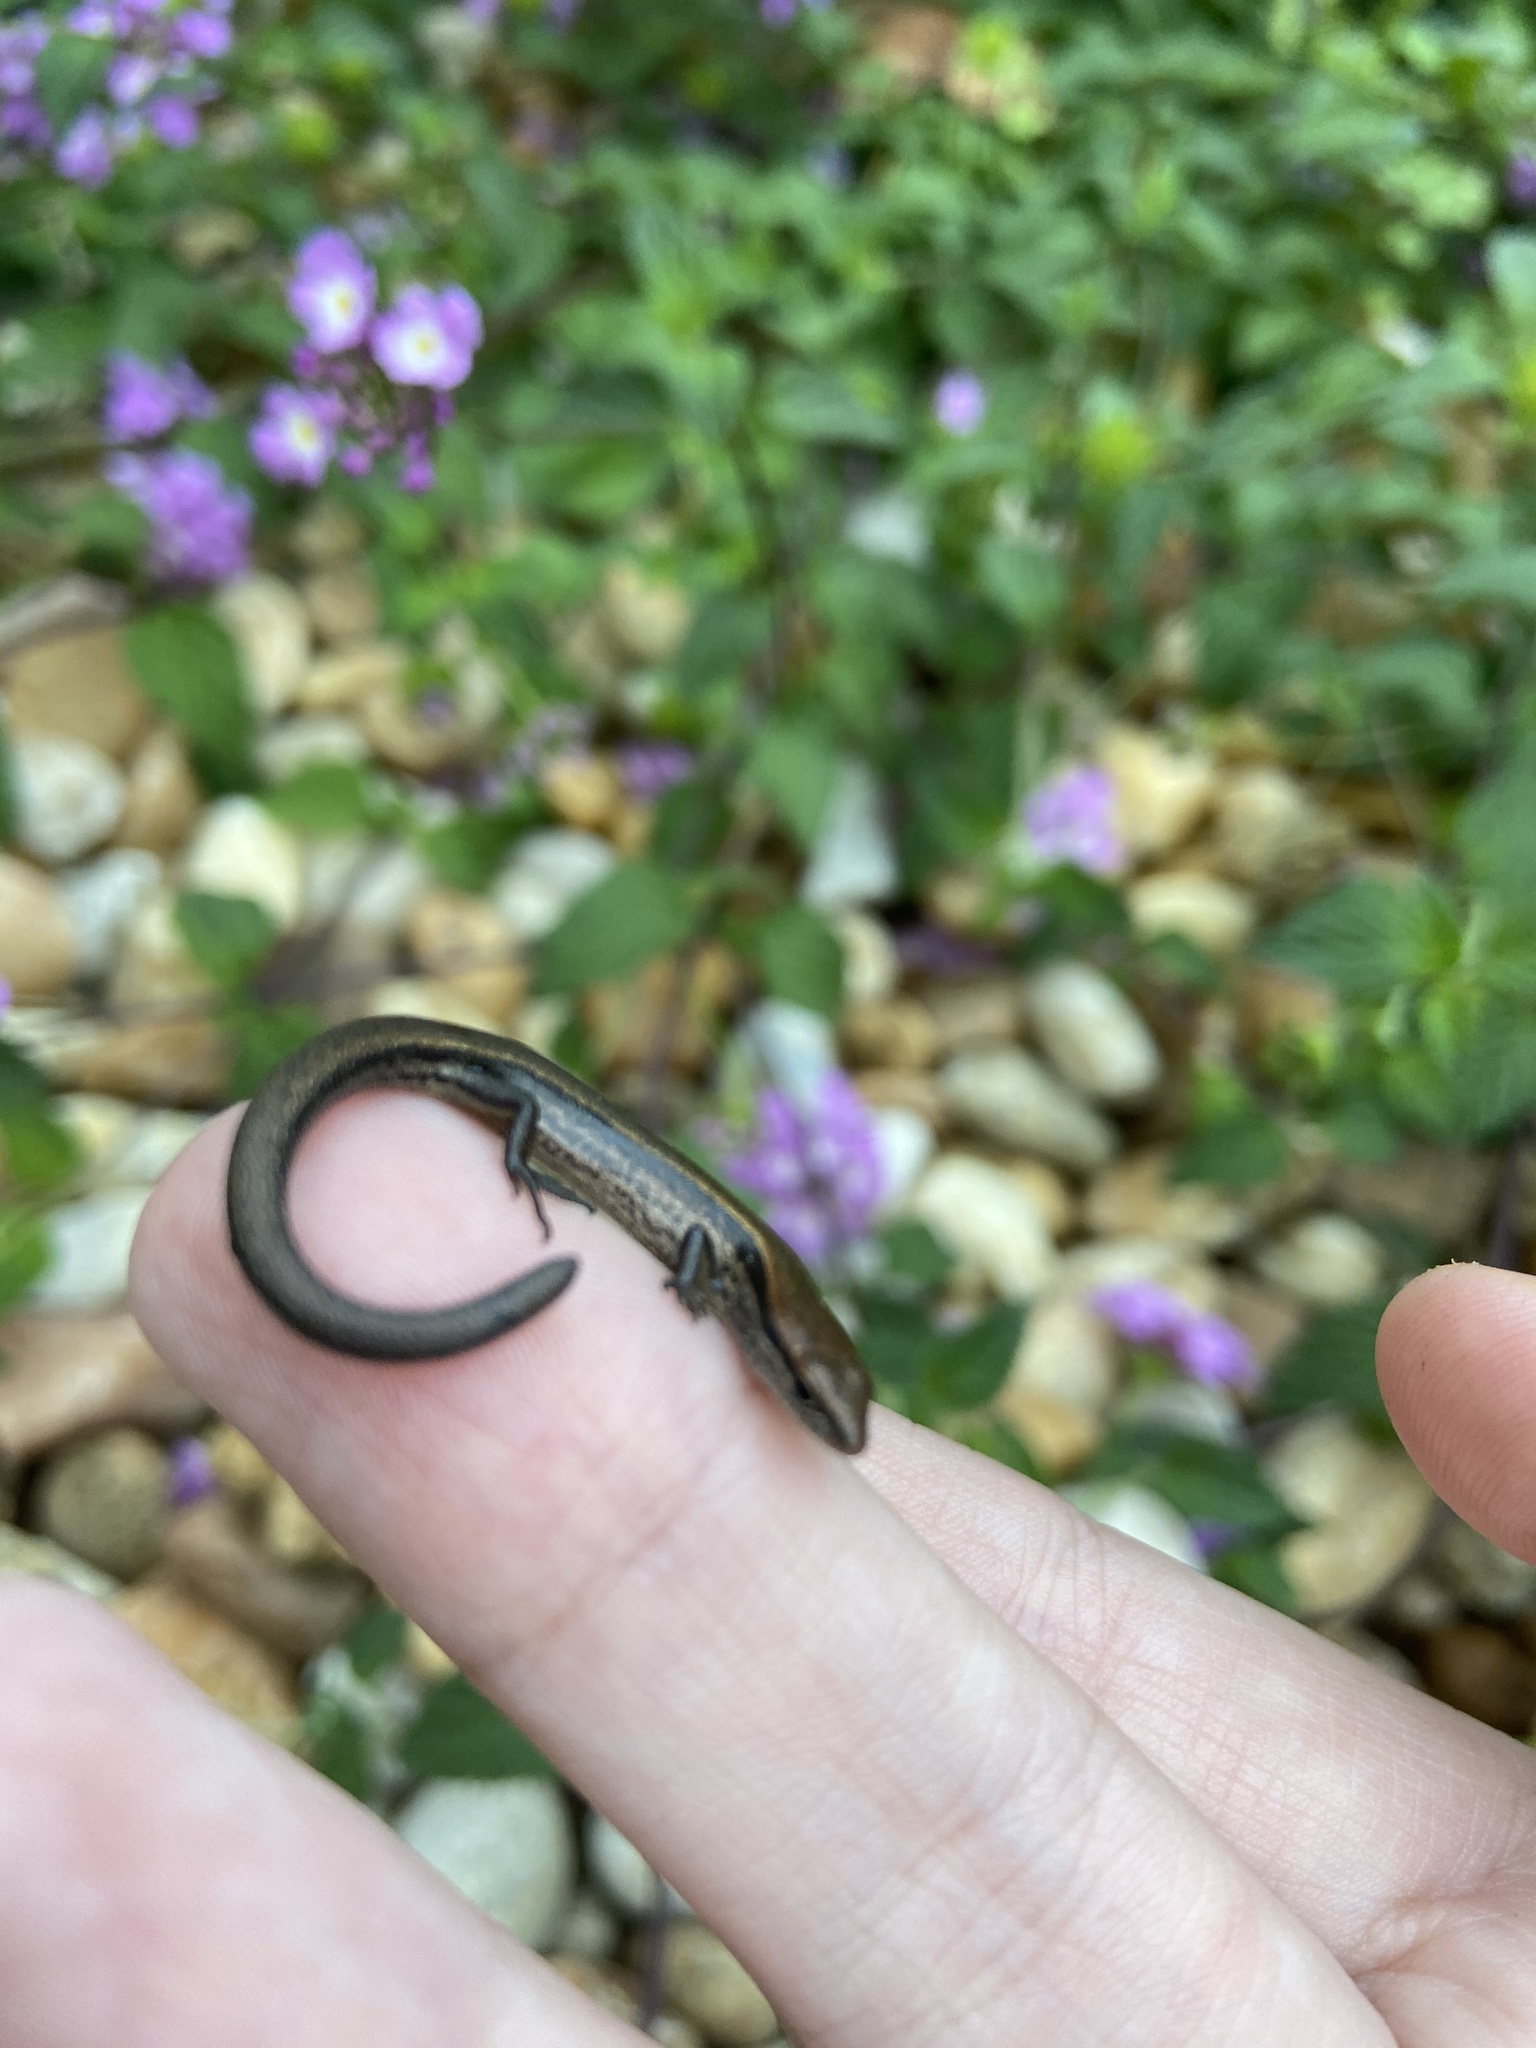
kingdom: Animalia
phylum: Chordata
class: Squamata
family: Scincidae
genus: Scincella
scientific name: Scincella lateralis
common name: Ground skink
